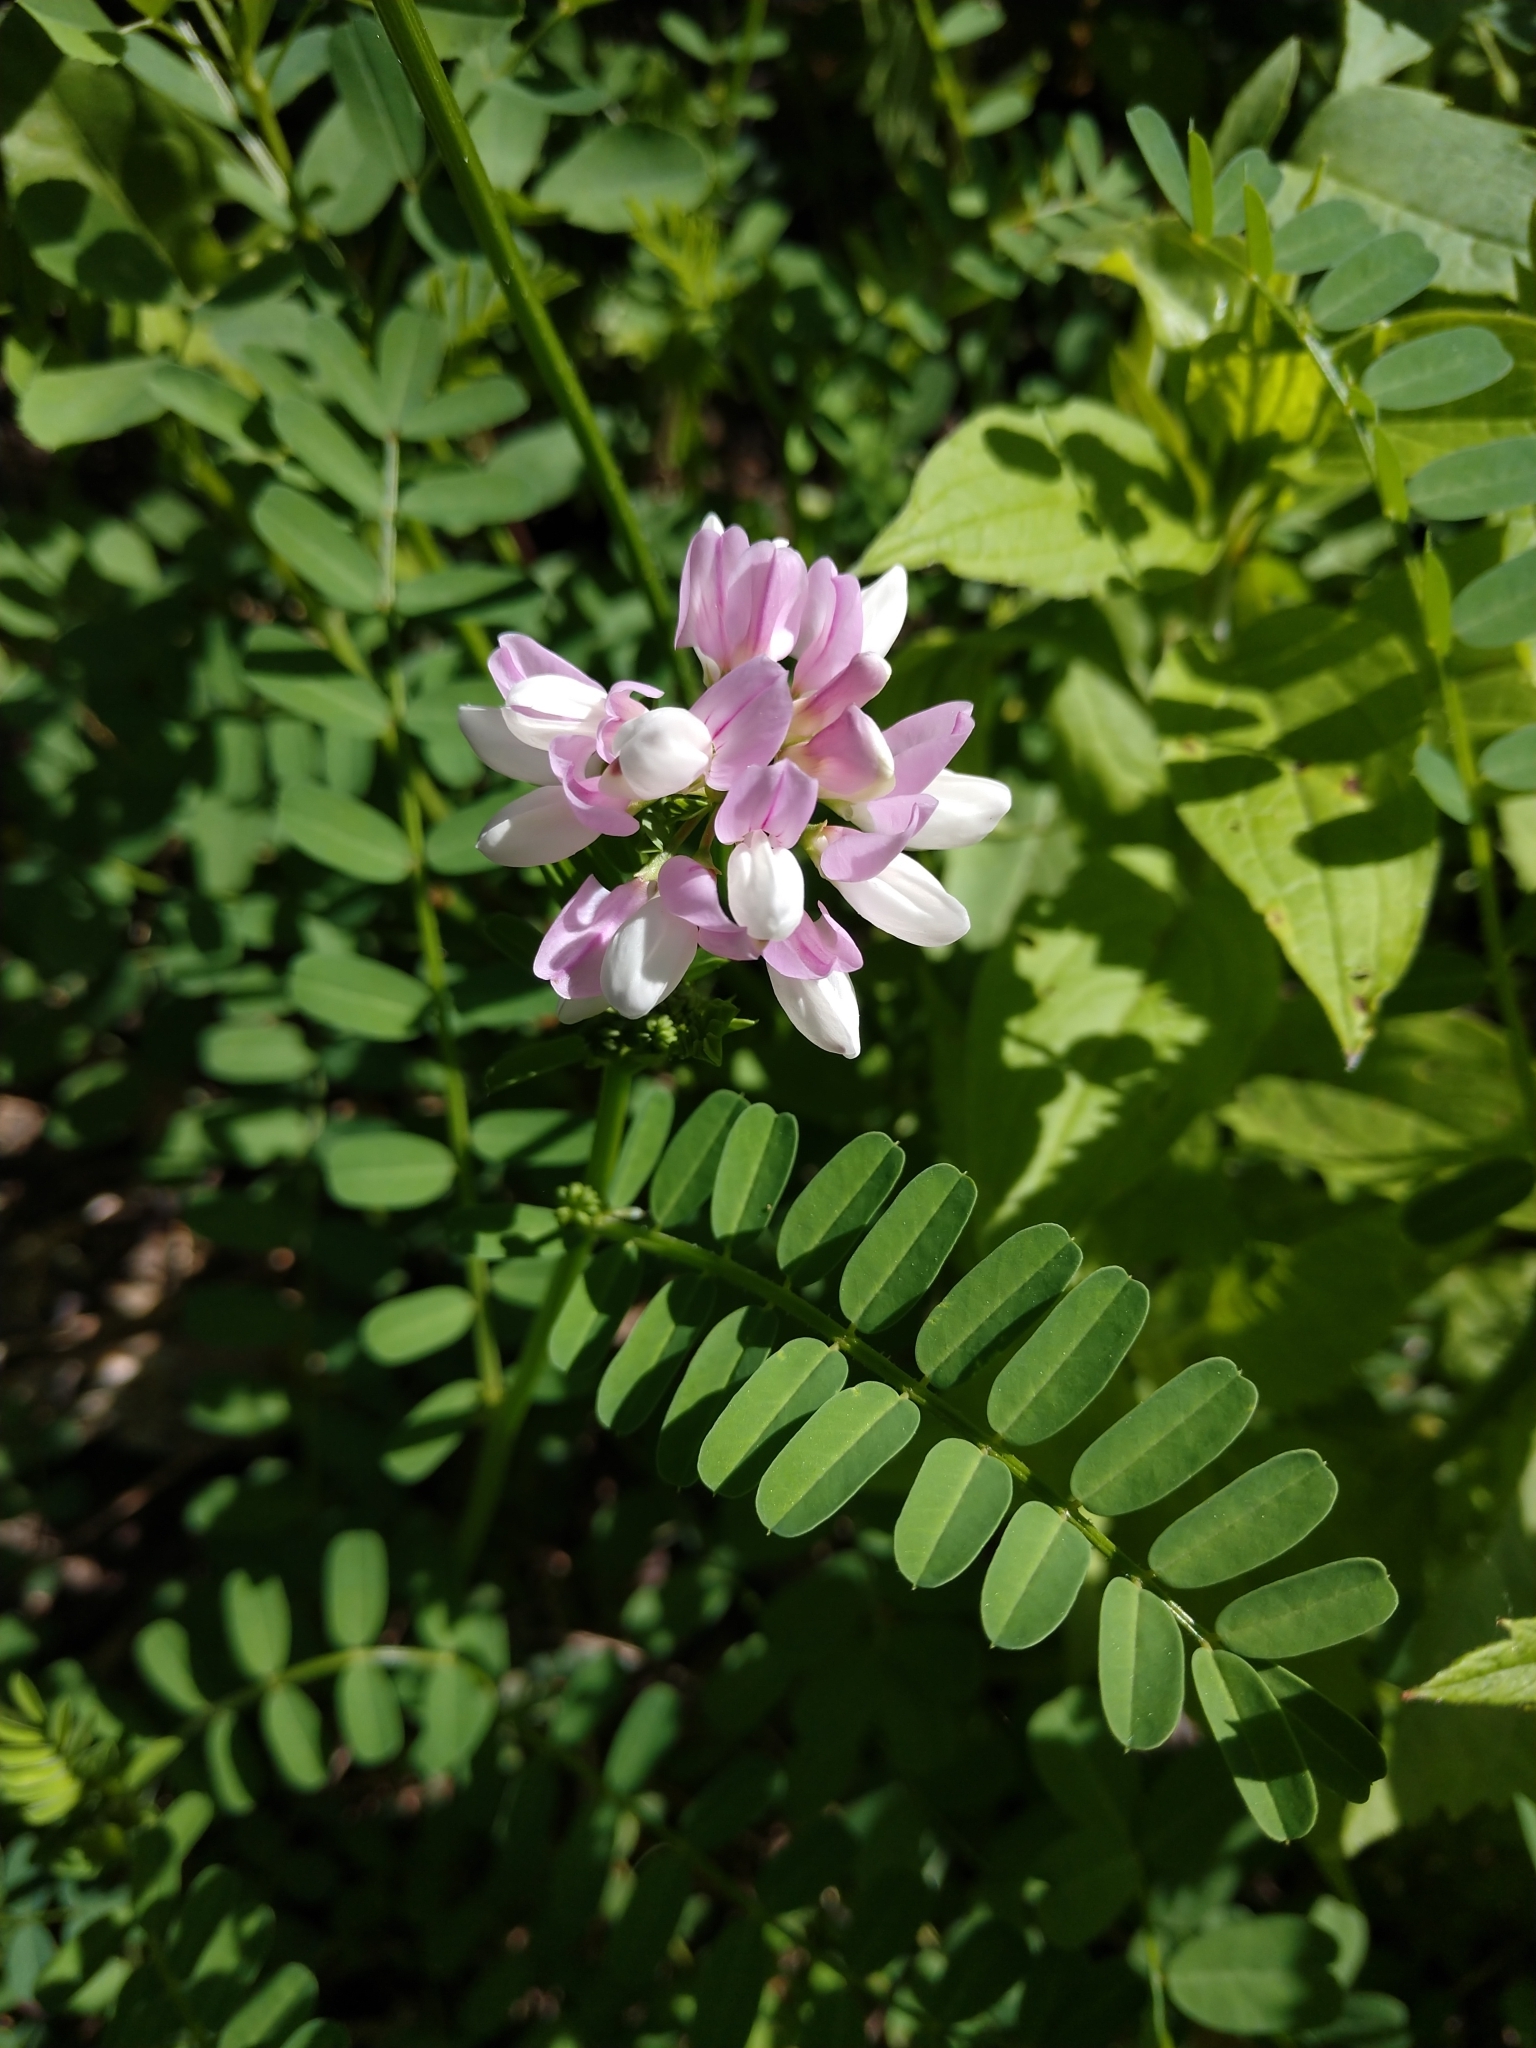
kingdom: Plantae
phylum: Tracheophyta
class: Magnoliopsida
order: Fabales
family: Fabaceae
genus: Coronilla
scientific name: Coronilla varia
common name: Crownvetch
